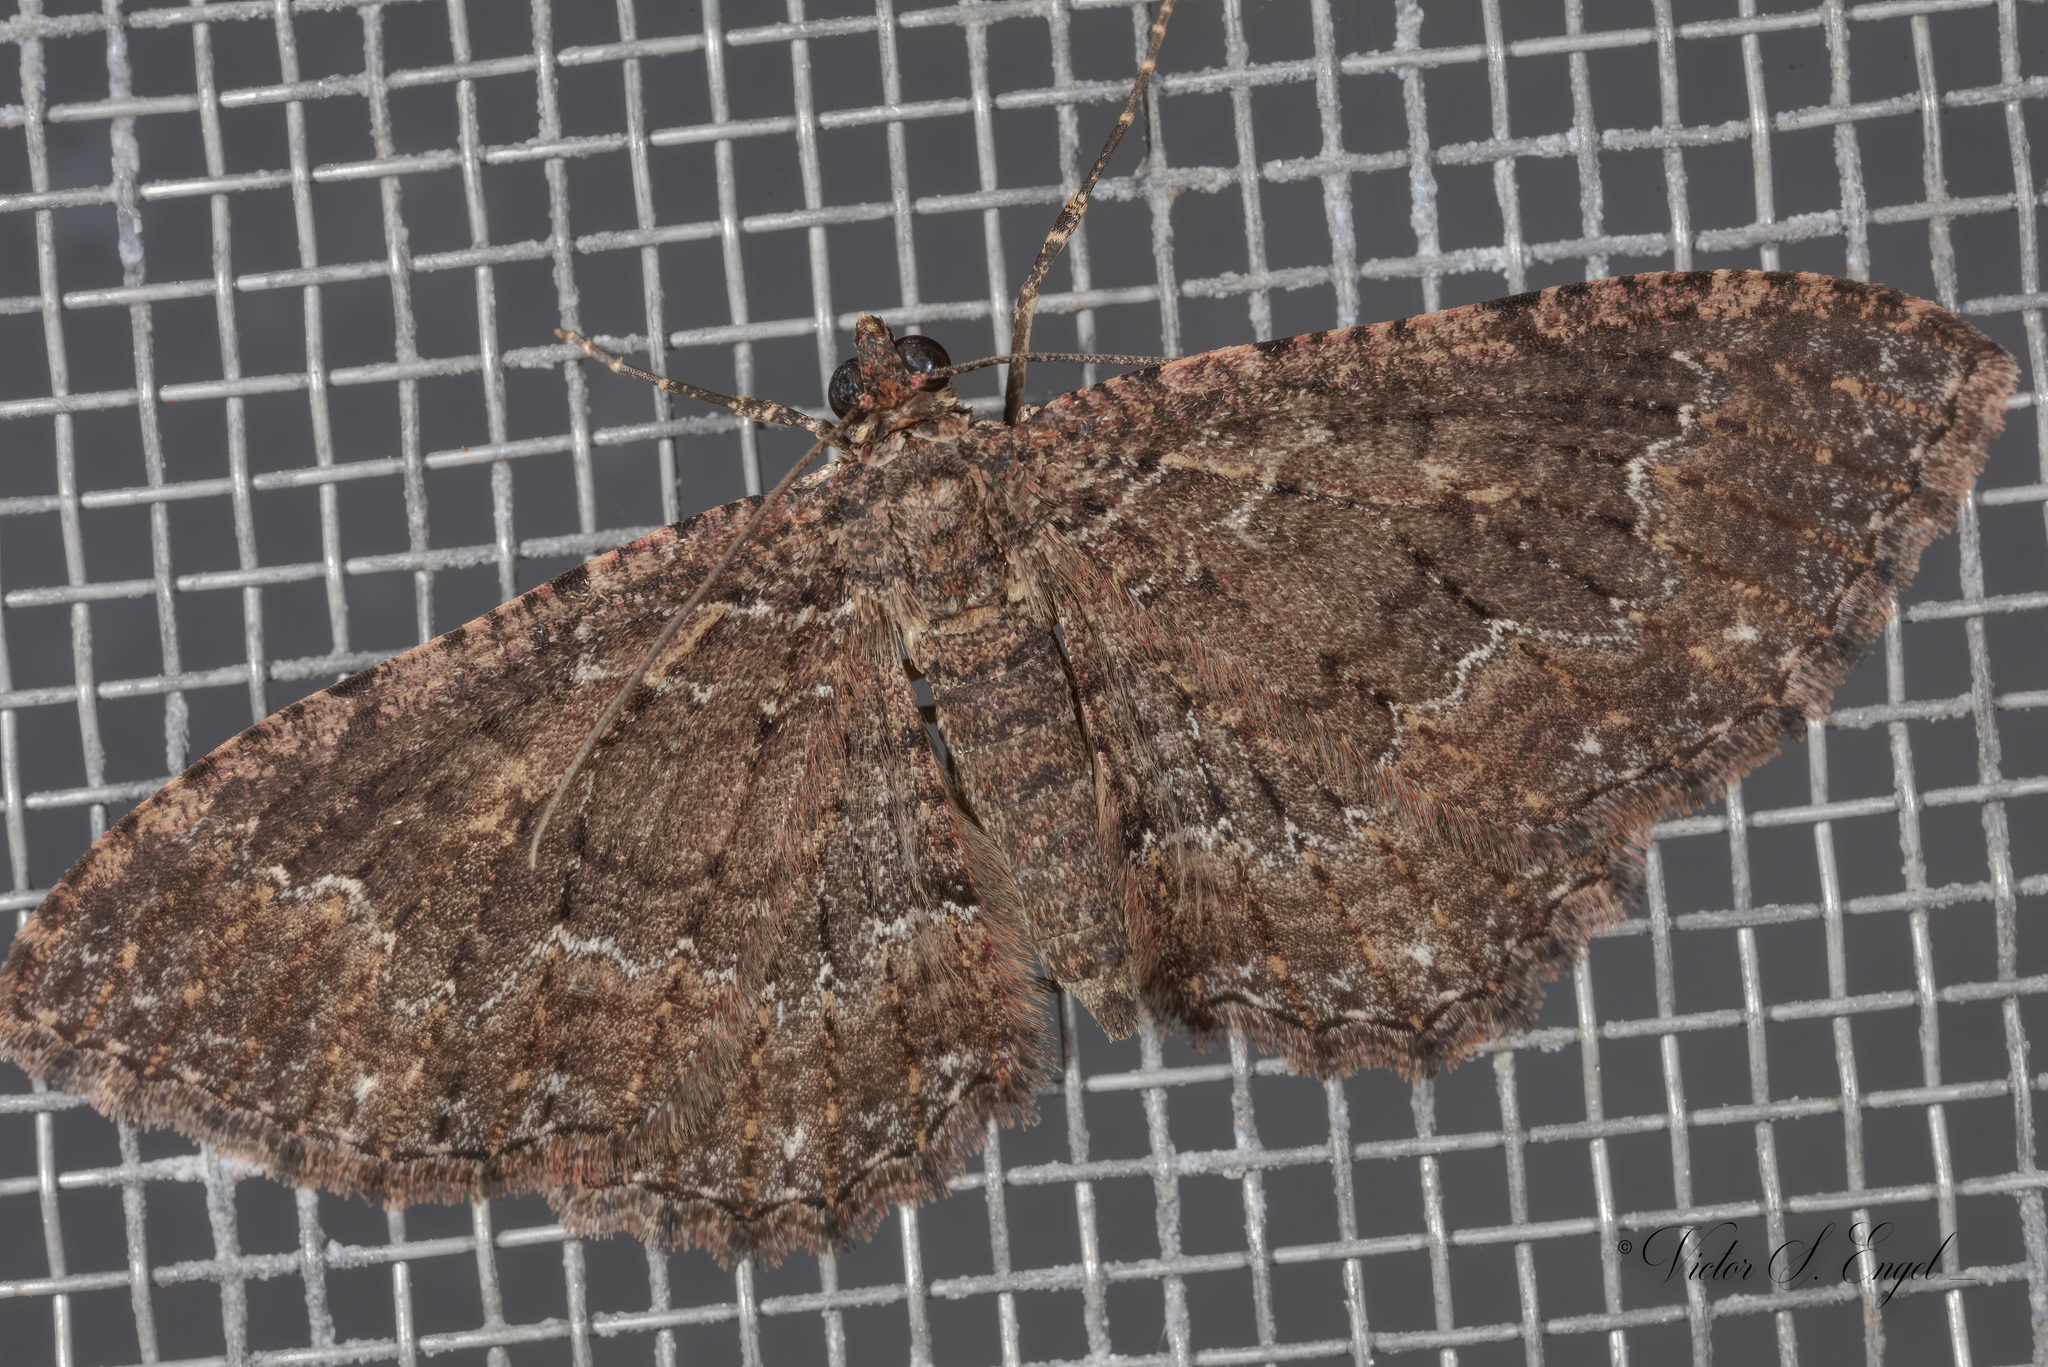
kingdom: Animalia
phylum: Arthropoda
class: Insecta
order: Lepidoptera
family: Geometridae
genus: Disclisioprocta
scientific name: Disclisioprocta stellata
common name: Somber carpet
